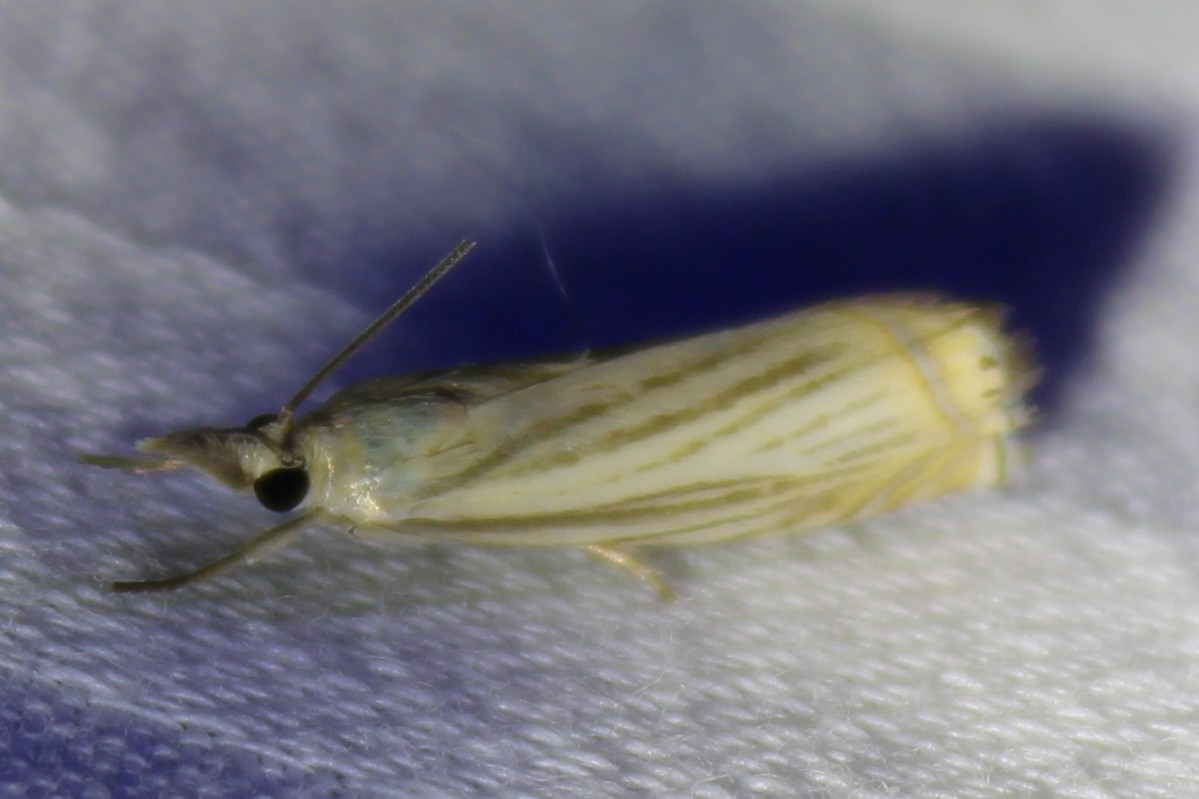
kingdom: Animalia
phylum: Arthropoda
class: Insecta
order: Lepidoptera
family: Crambidae
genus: Chrysoteuchia
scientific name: Chrysoteuchia topiarius
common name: Topiary grass-veneer
